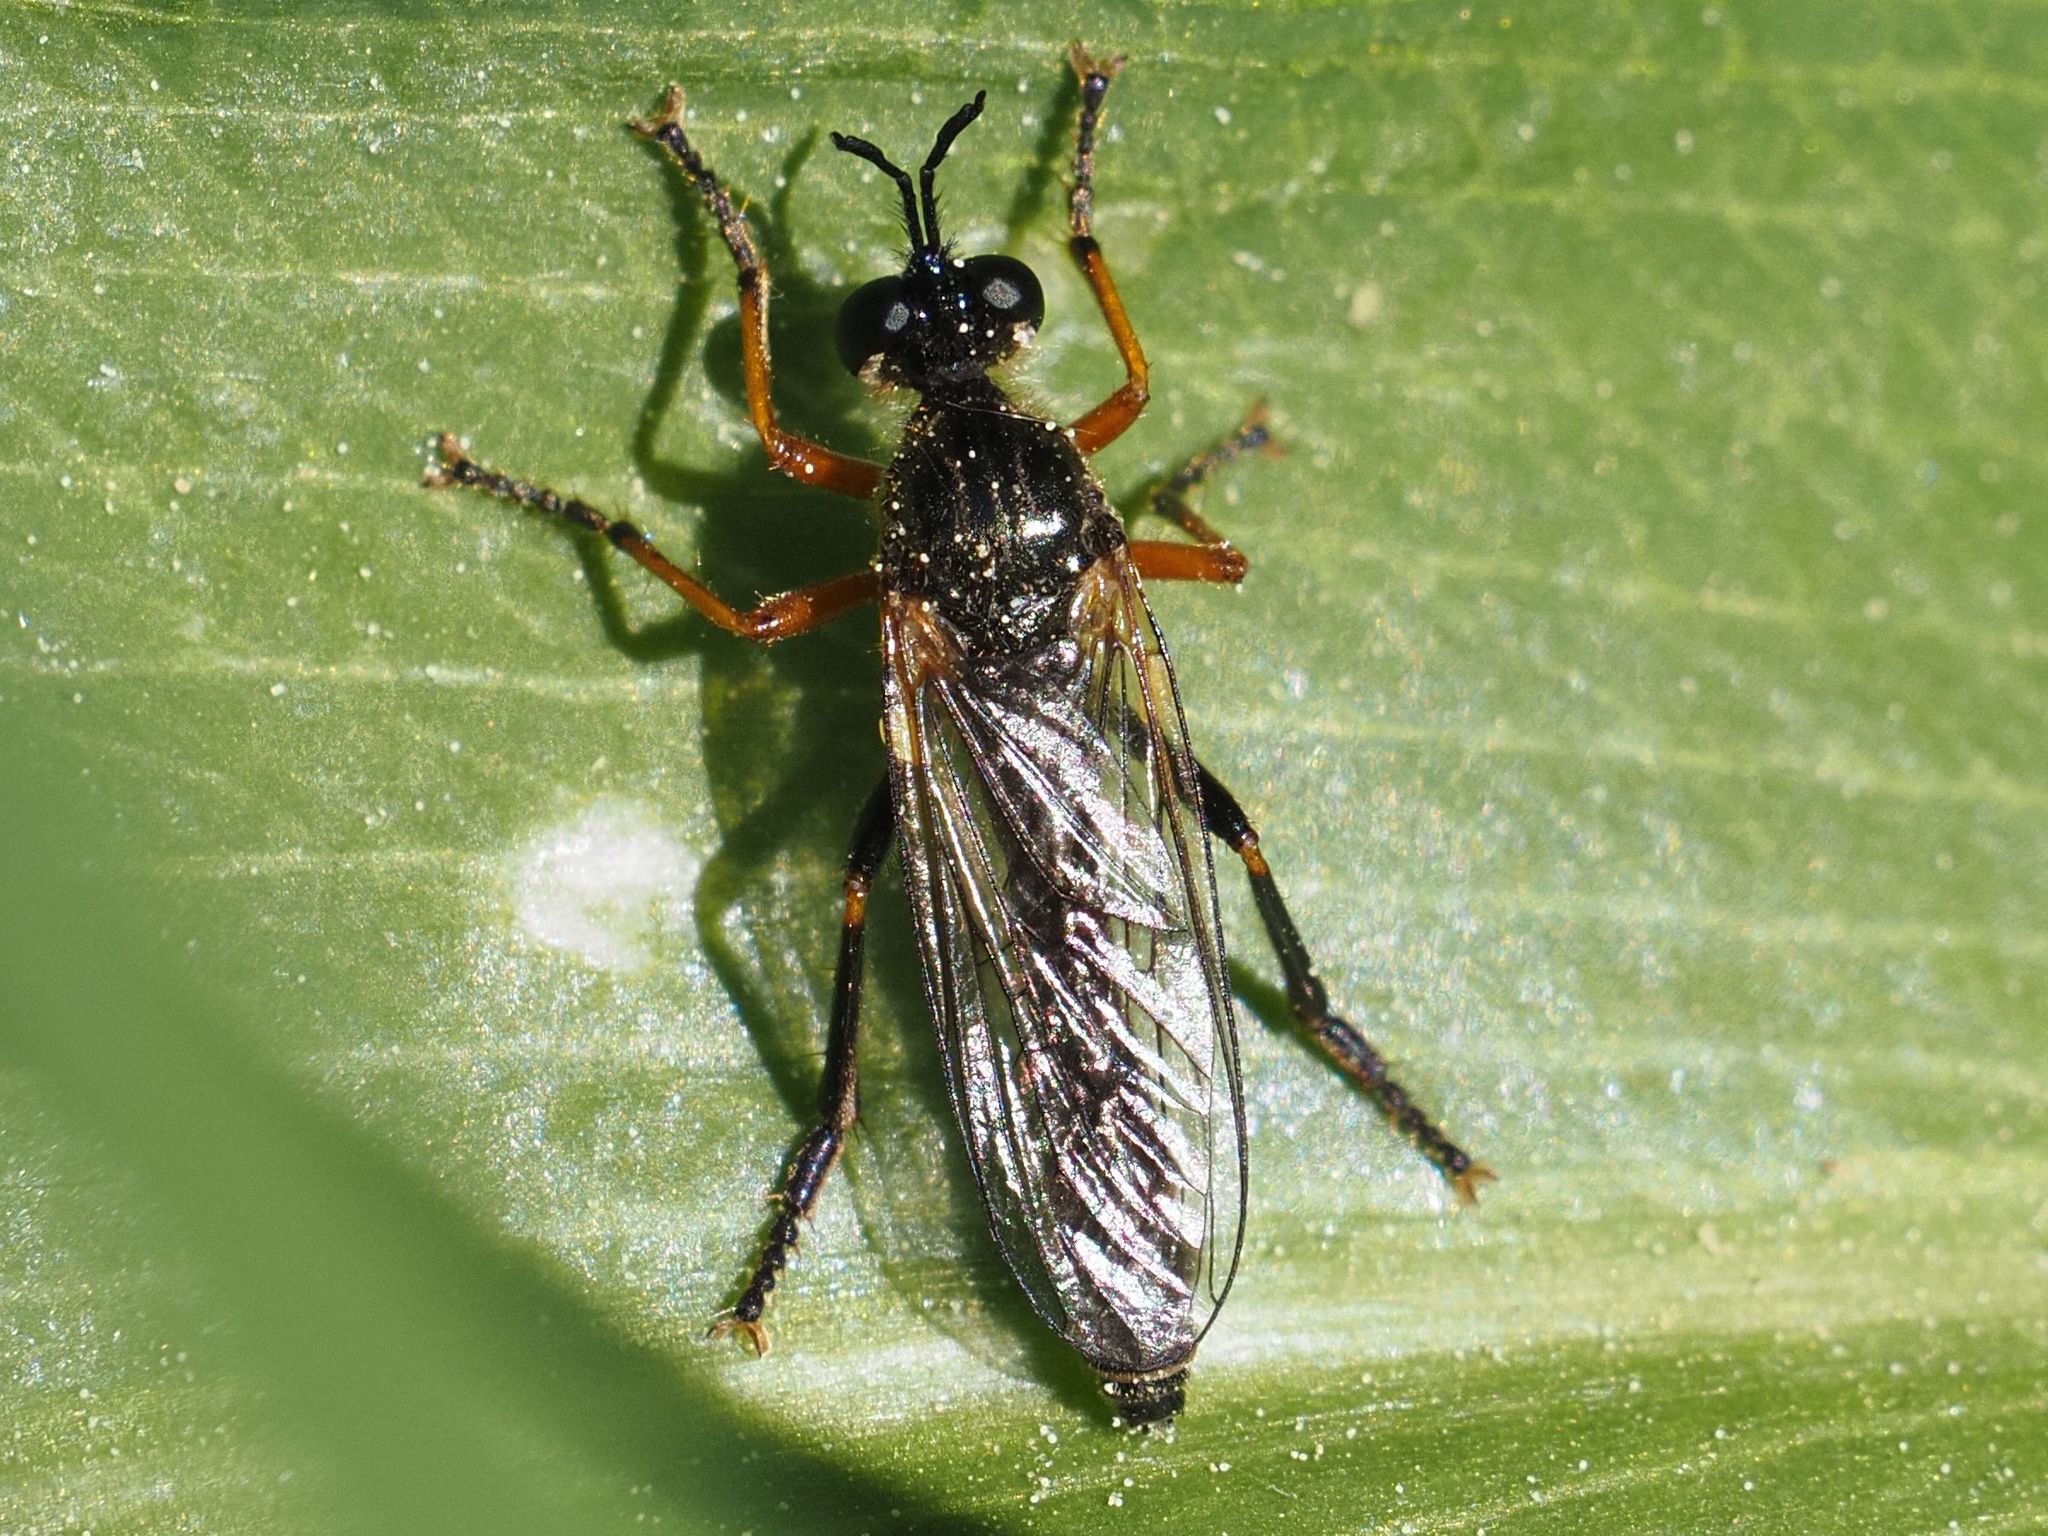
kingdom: Animalia
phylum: Arthropoda
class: Insecta
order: Diptera
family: Asilidae
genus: Dioctria
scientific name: Dioctria rufipes
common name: Common red-legged robberfly
